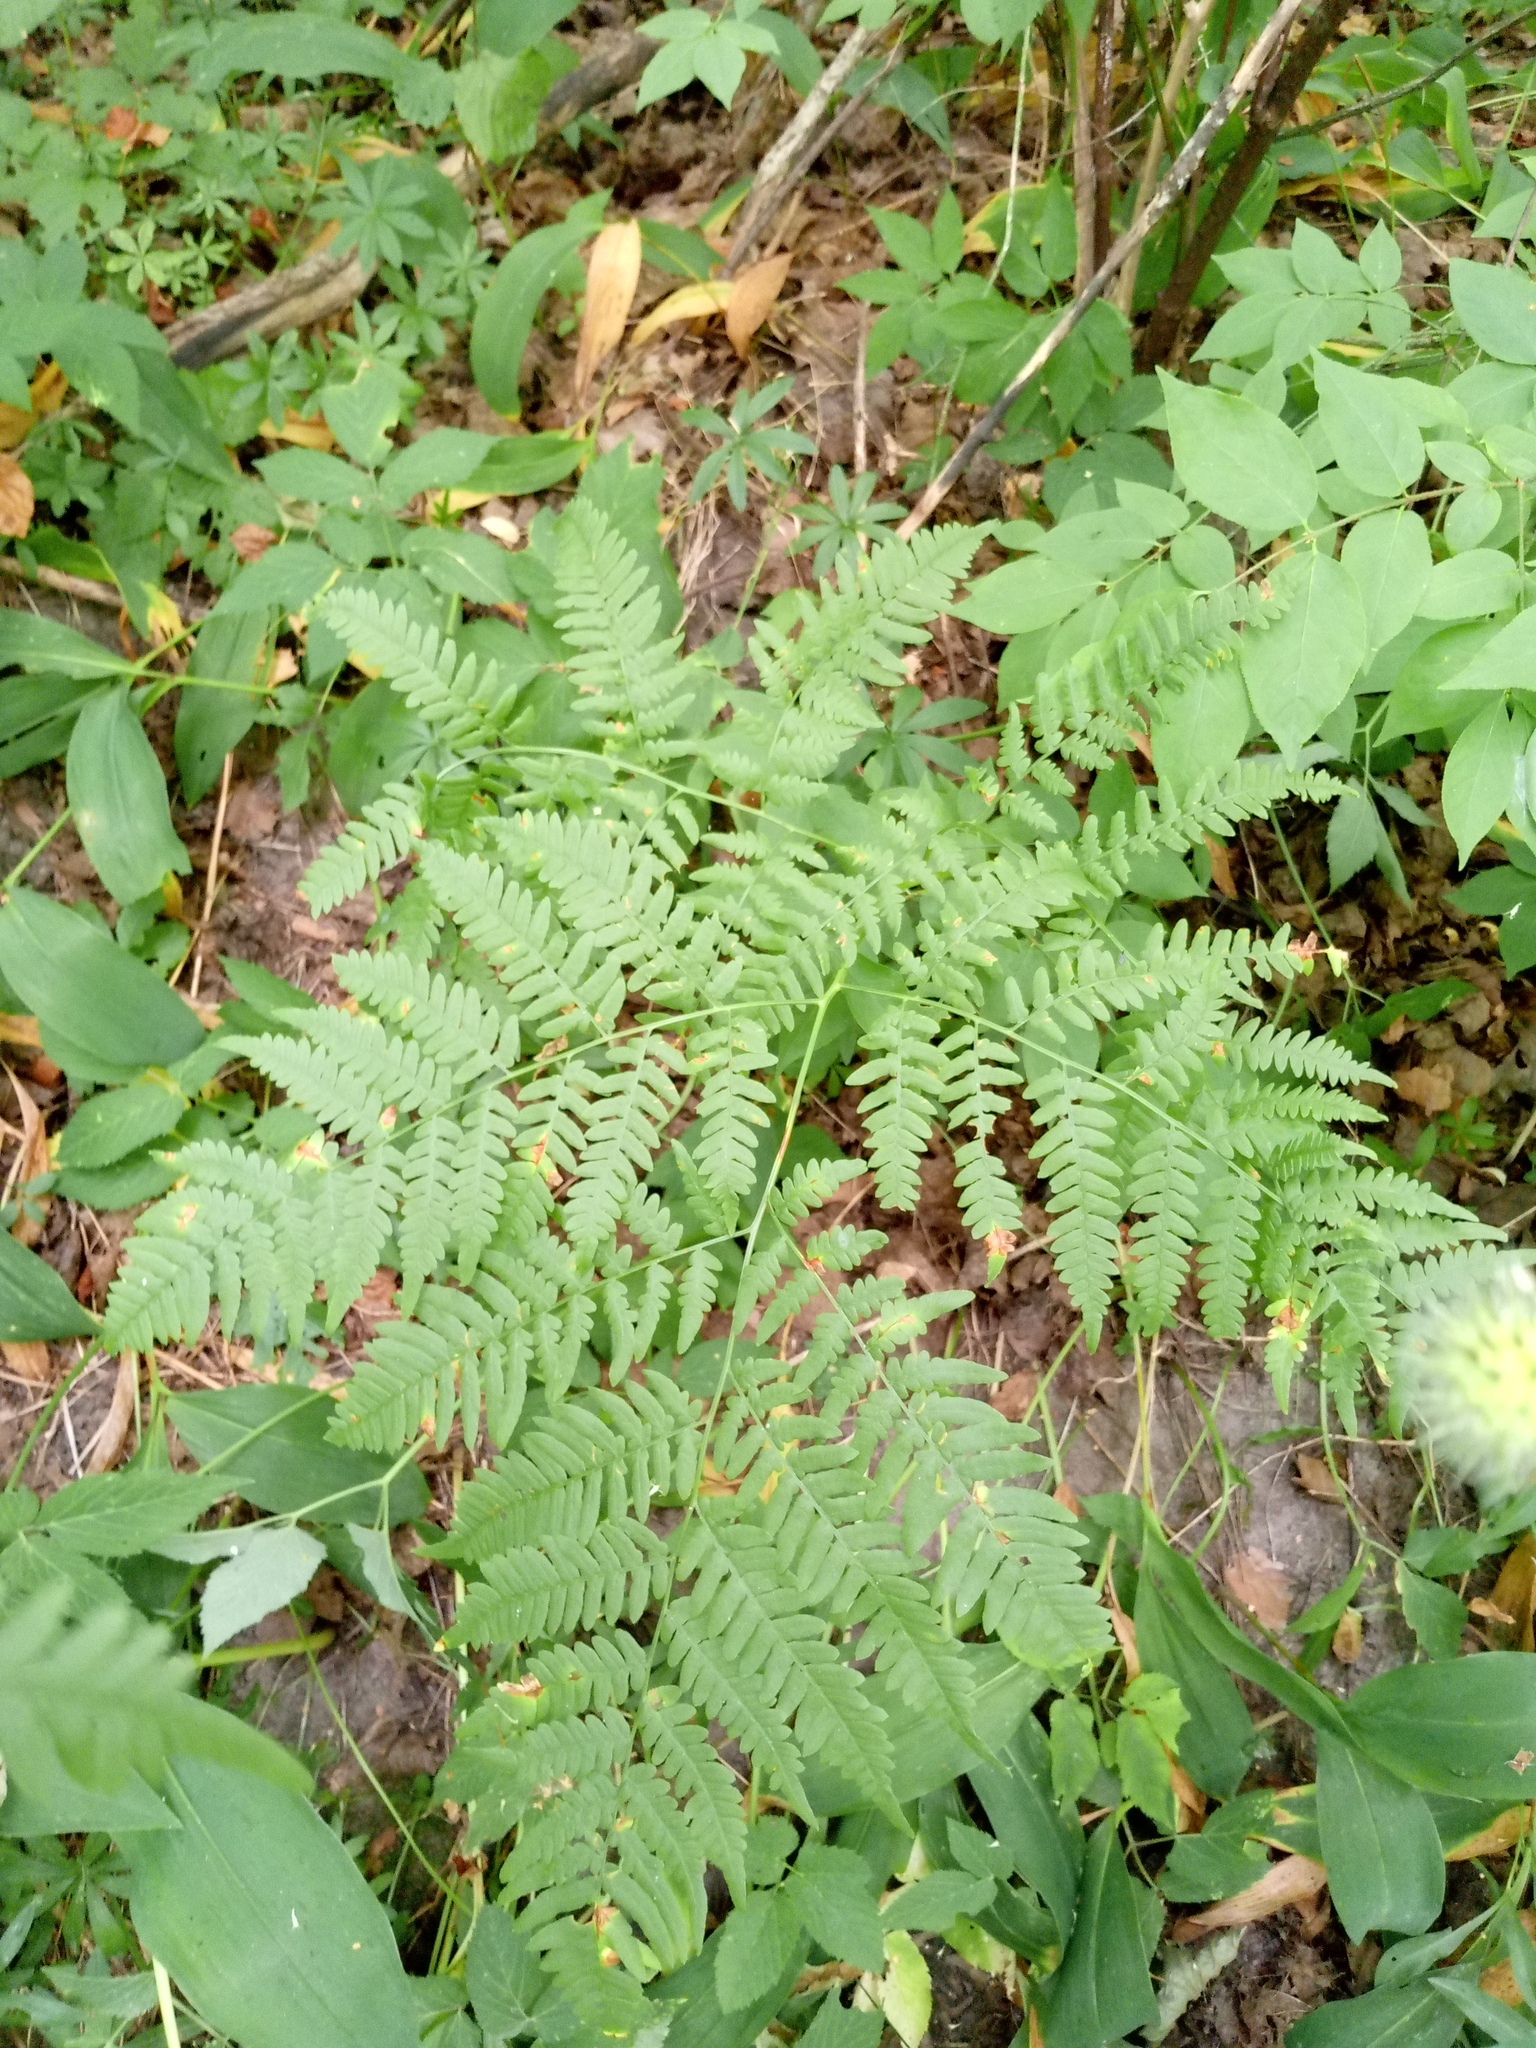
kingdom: Plantae
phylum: Tracheophyta
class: Polypodiopsida
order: Polypodiales
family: Dennstaedtiaceae
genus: Pteridium
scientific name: Pteridium aquilinum
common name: Bracken
